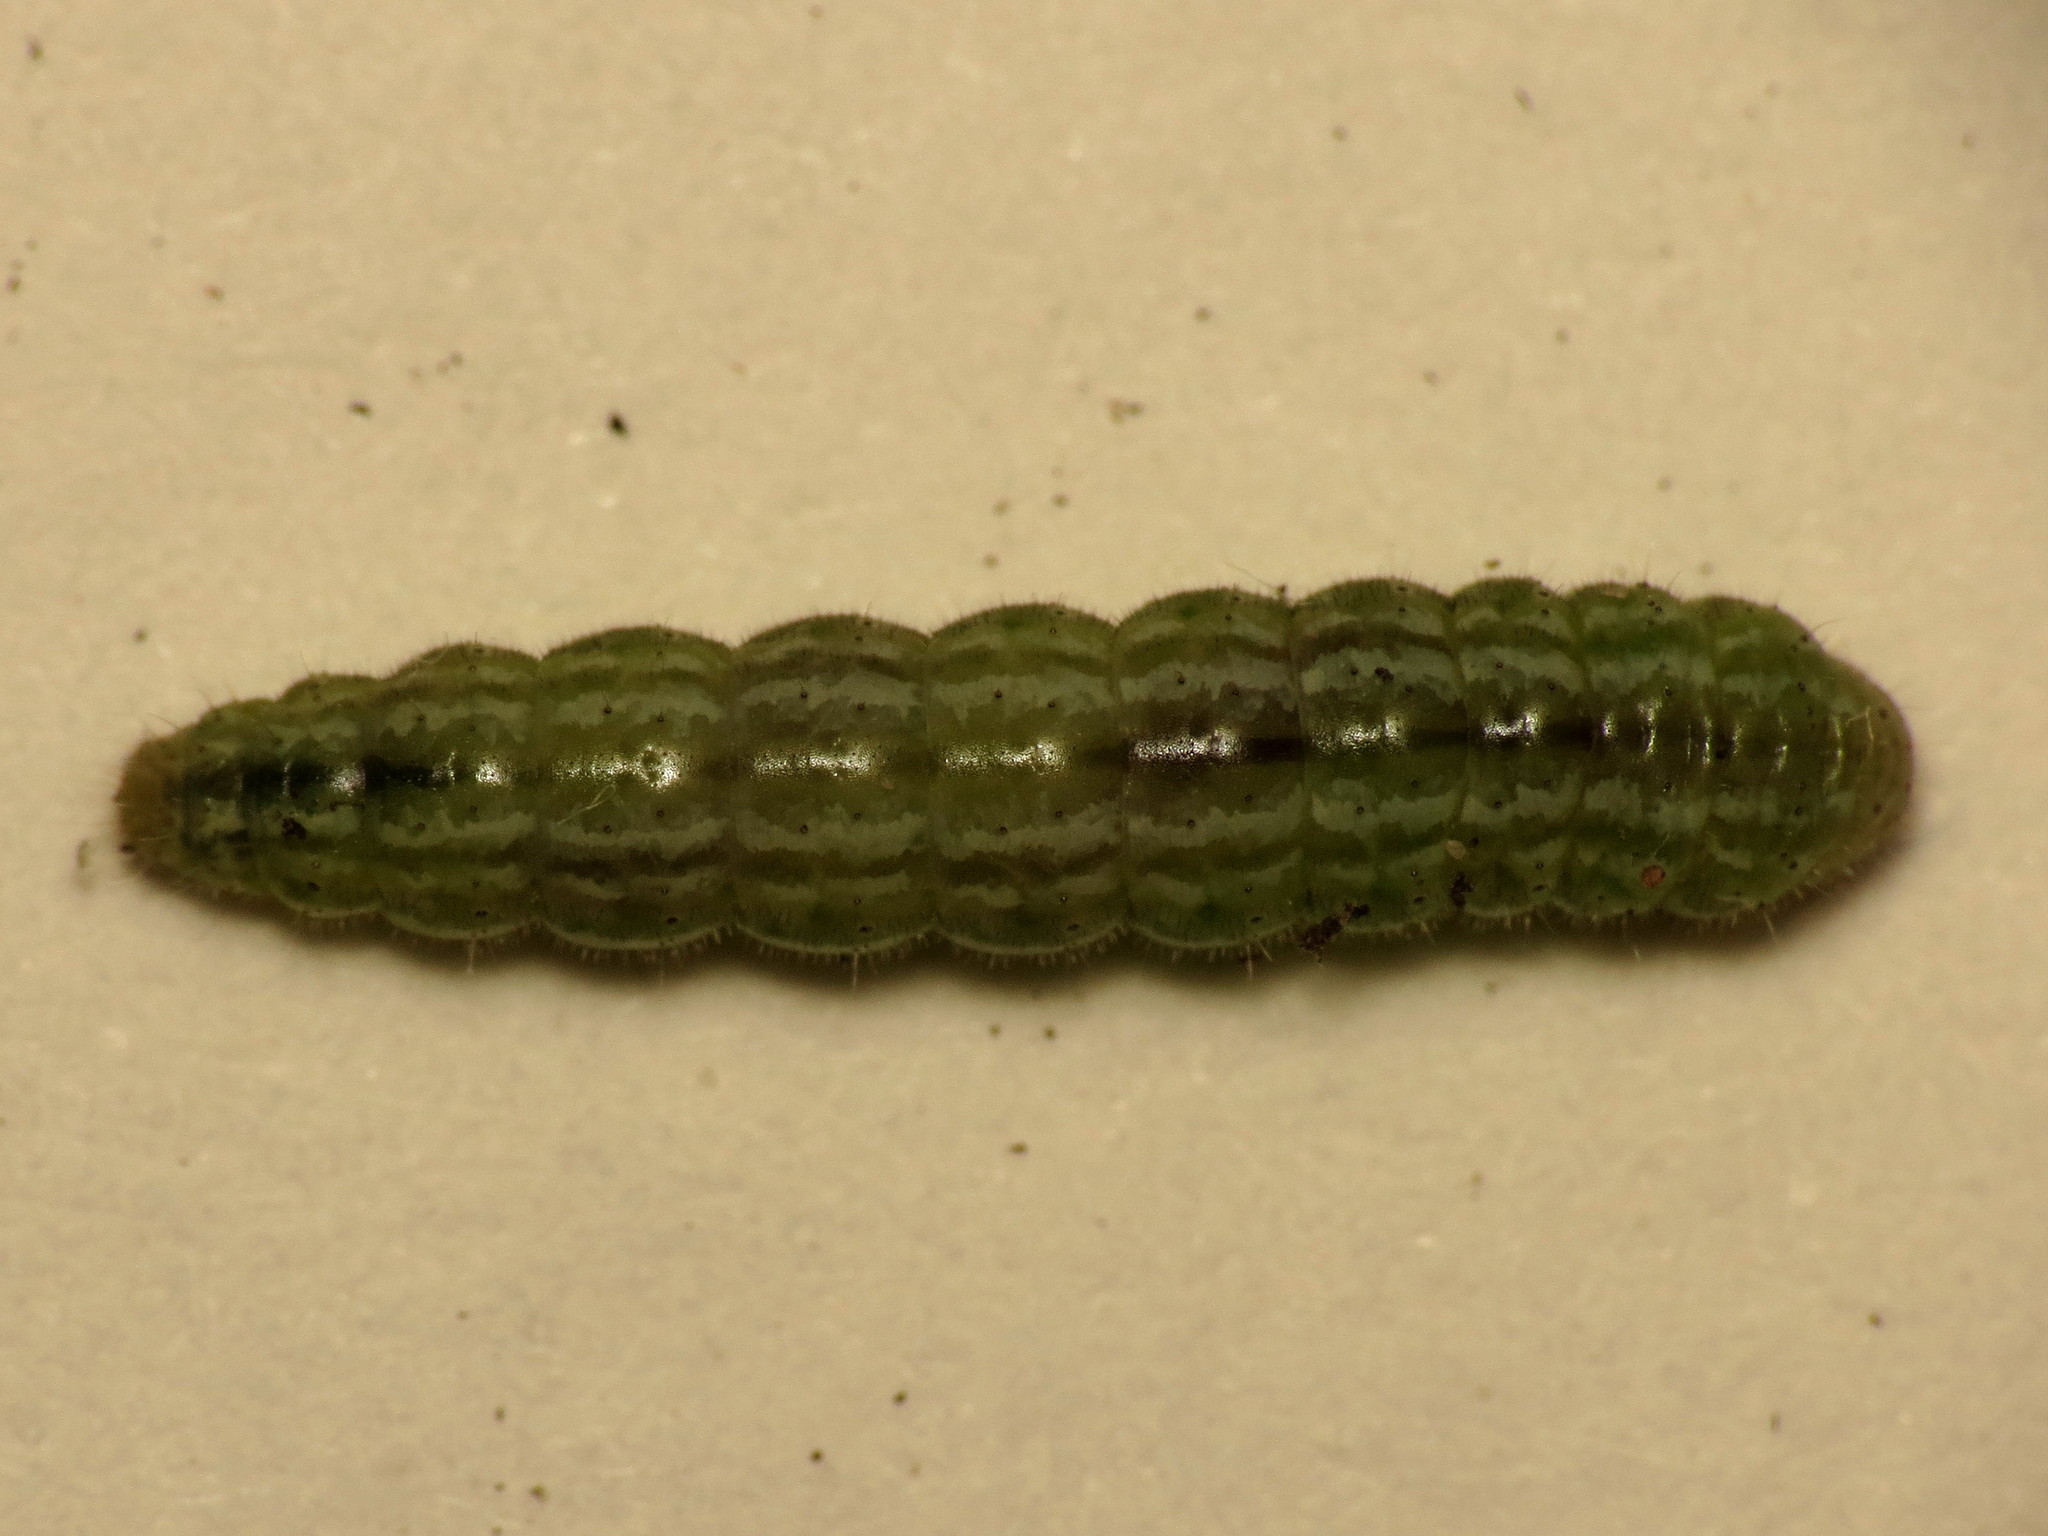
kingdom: Animalia
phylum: Arthropoda
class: Insecta
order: Lepidoptera
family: Pterophoridae
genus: Gillmeria
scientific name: Gillmeria ochrodactyla
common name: Tansy plume
